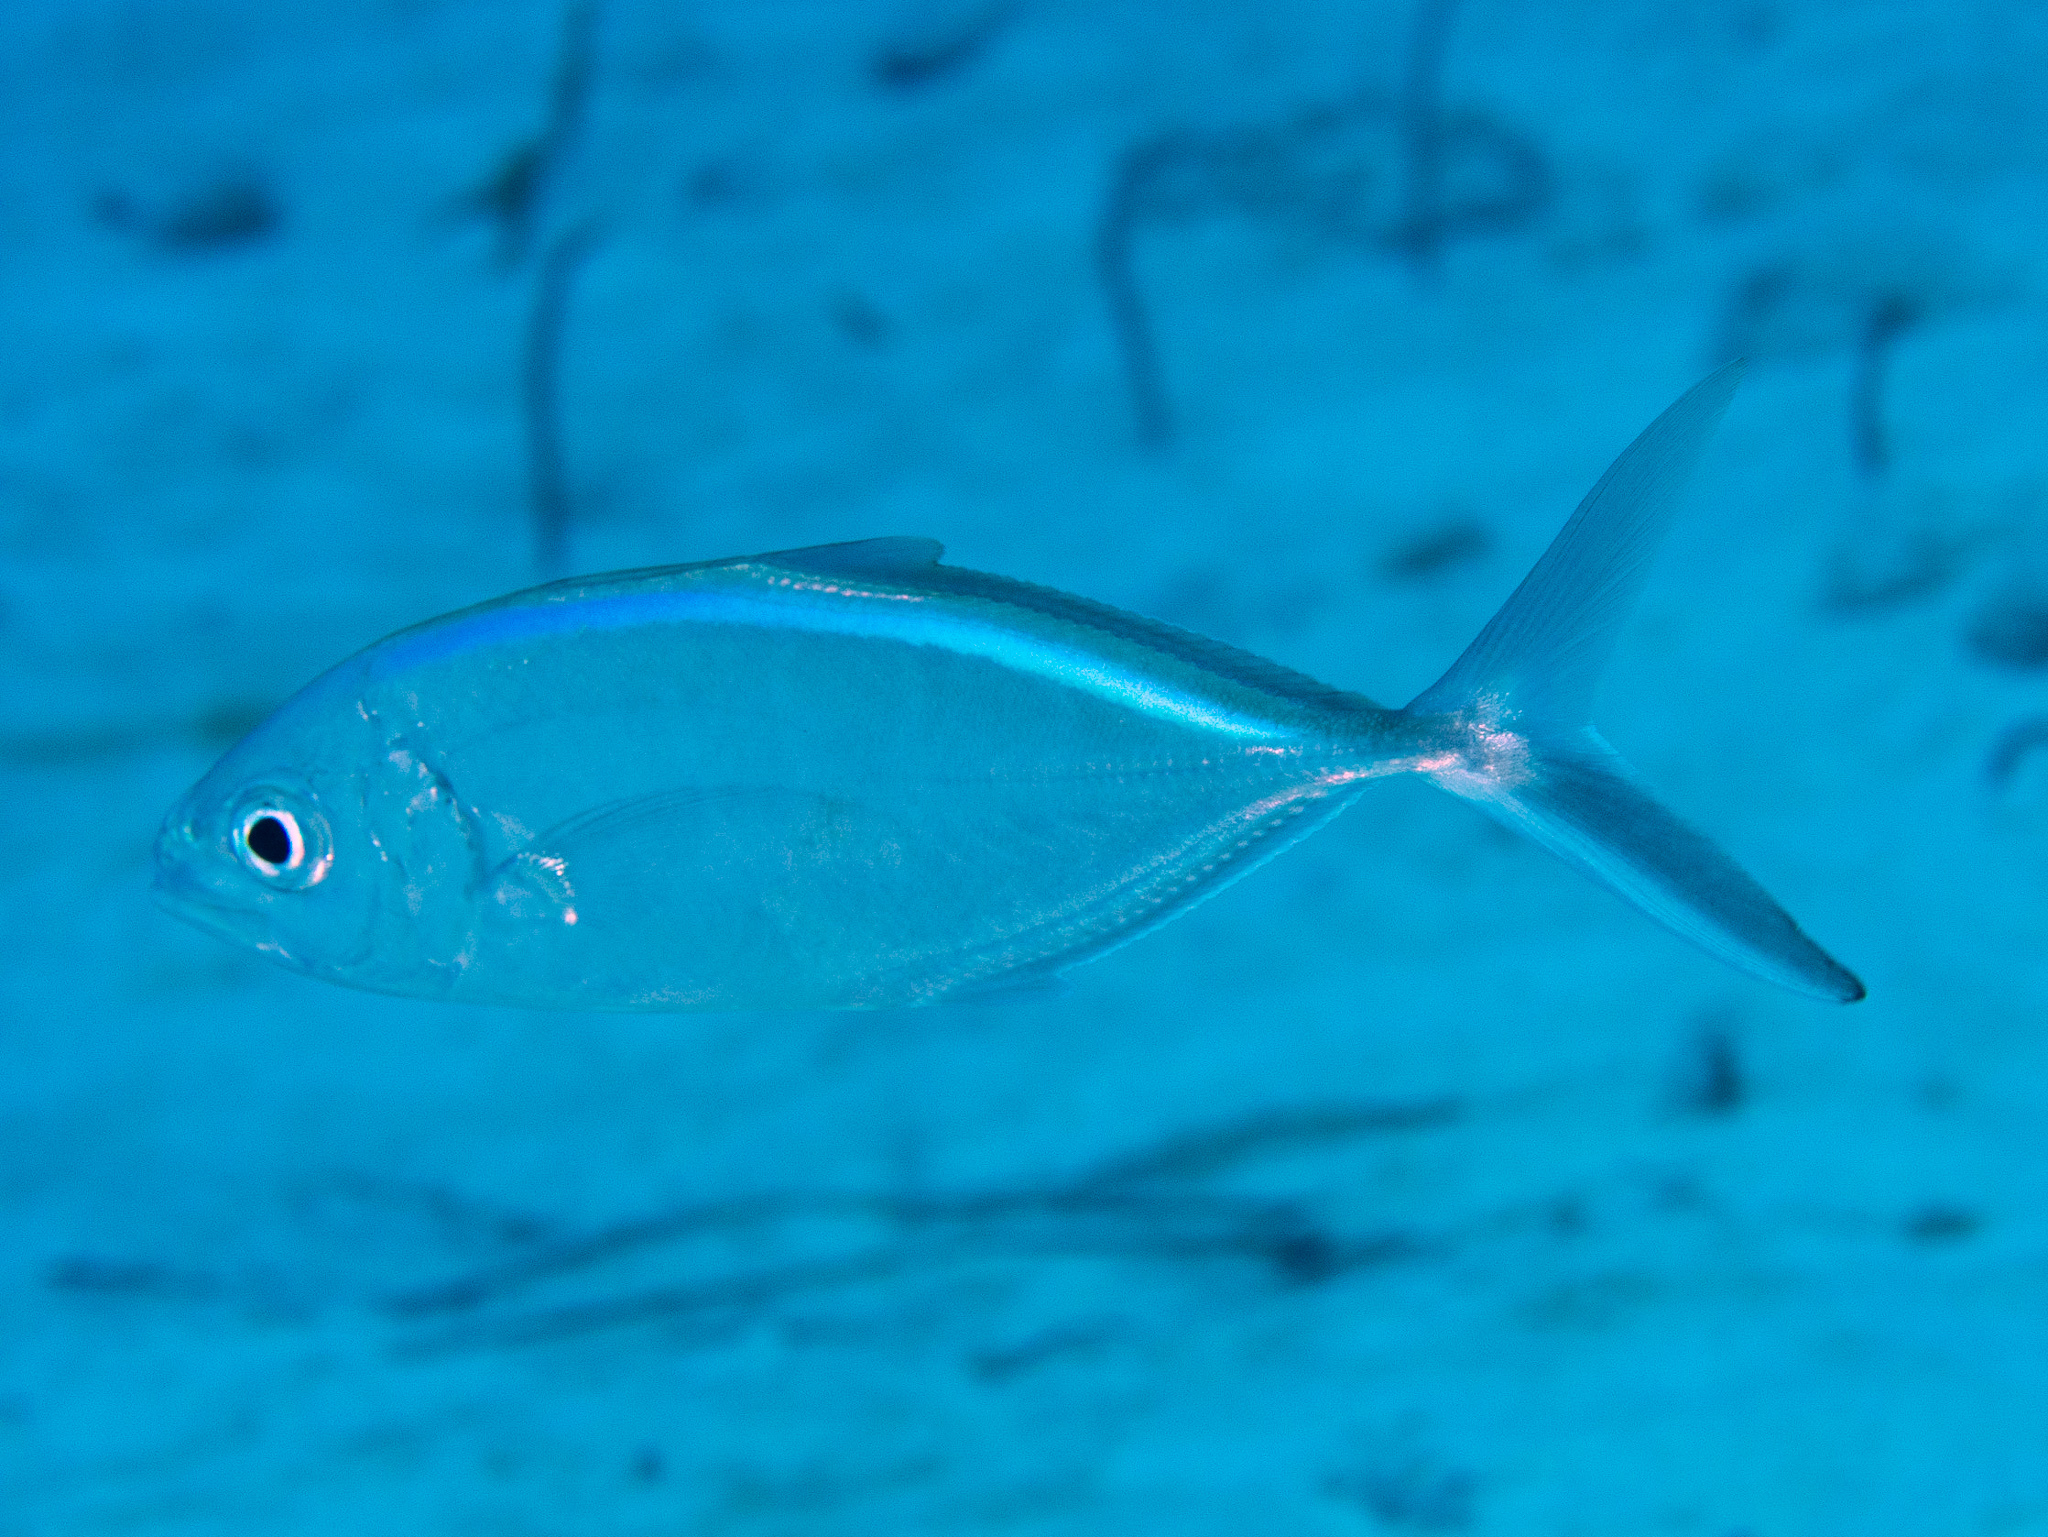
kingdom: Animalia
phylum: Chordata
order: Perciformes
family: Carangidae
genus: Caranx
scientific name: Caranx ruber
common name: Bar jack
